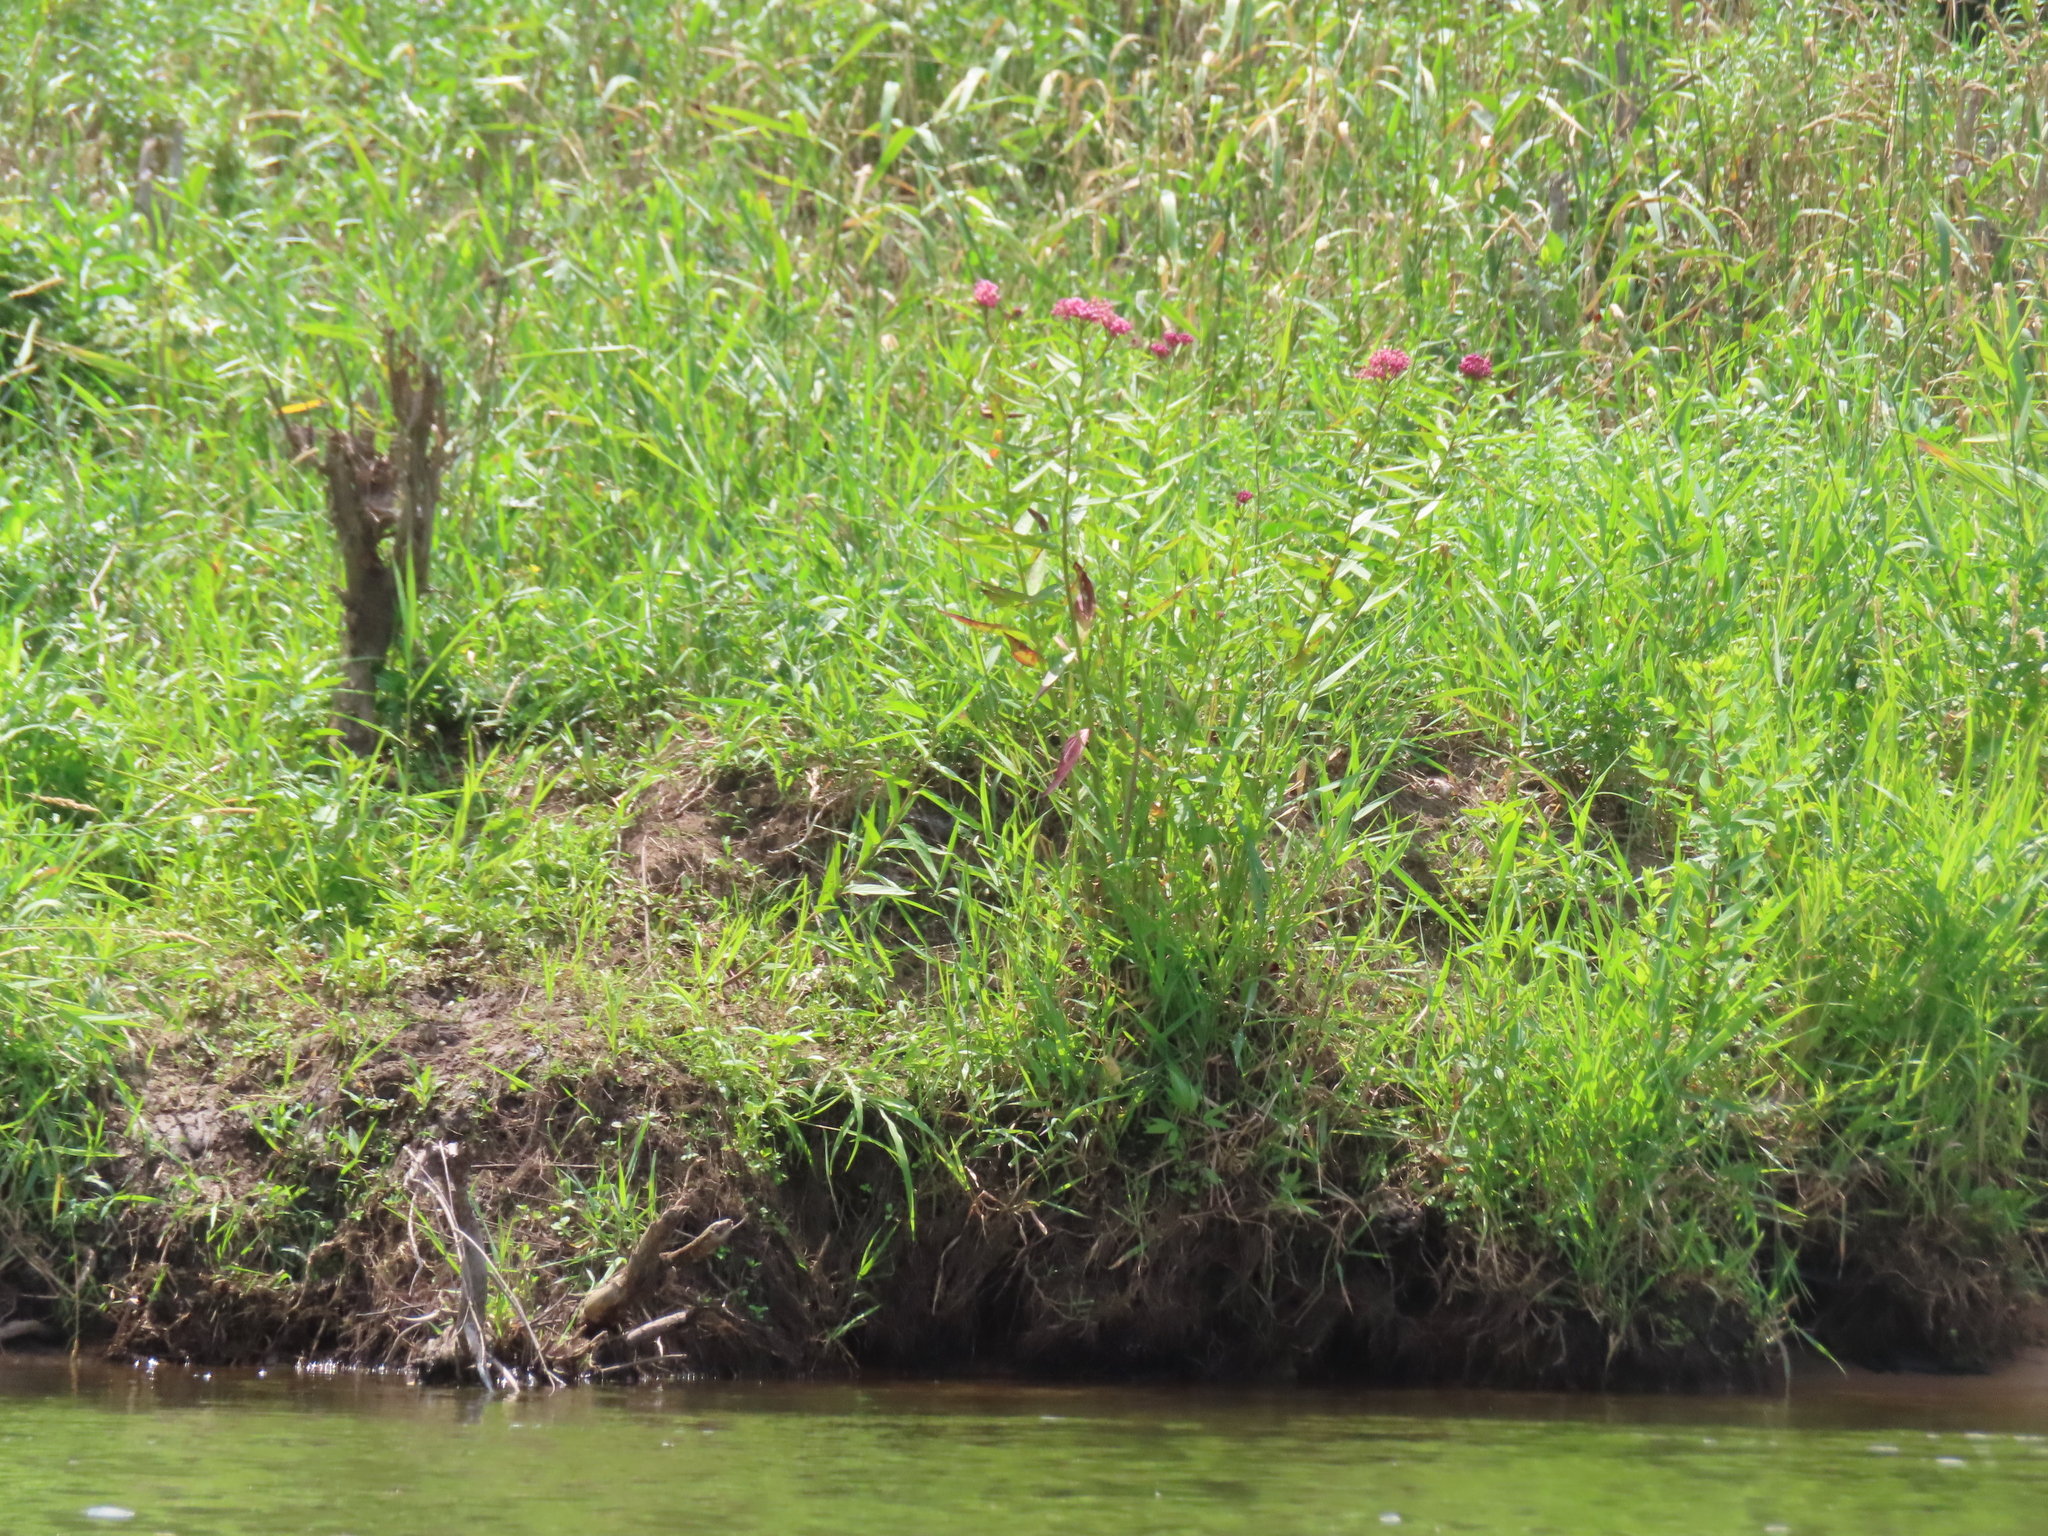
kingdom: Plantae
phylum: Tracheophyta
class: Magnoliopsida
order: Gentianales
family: Apocynaceae
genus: Asclepias
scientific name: Asclepias incarnata
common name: Swamp milkweed
